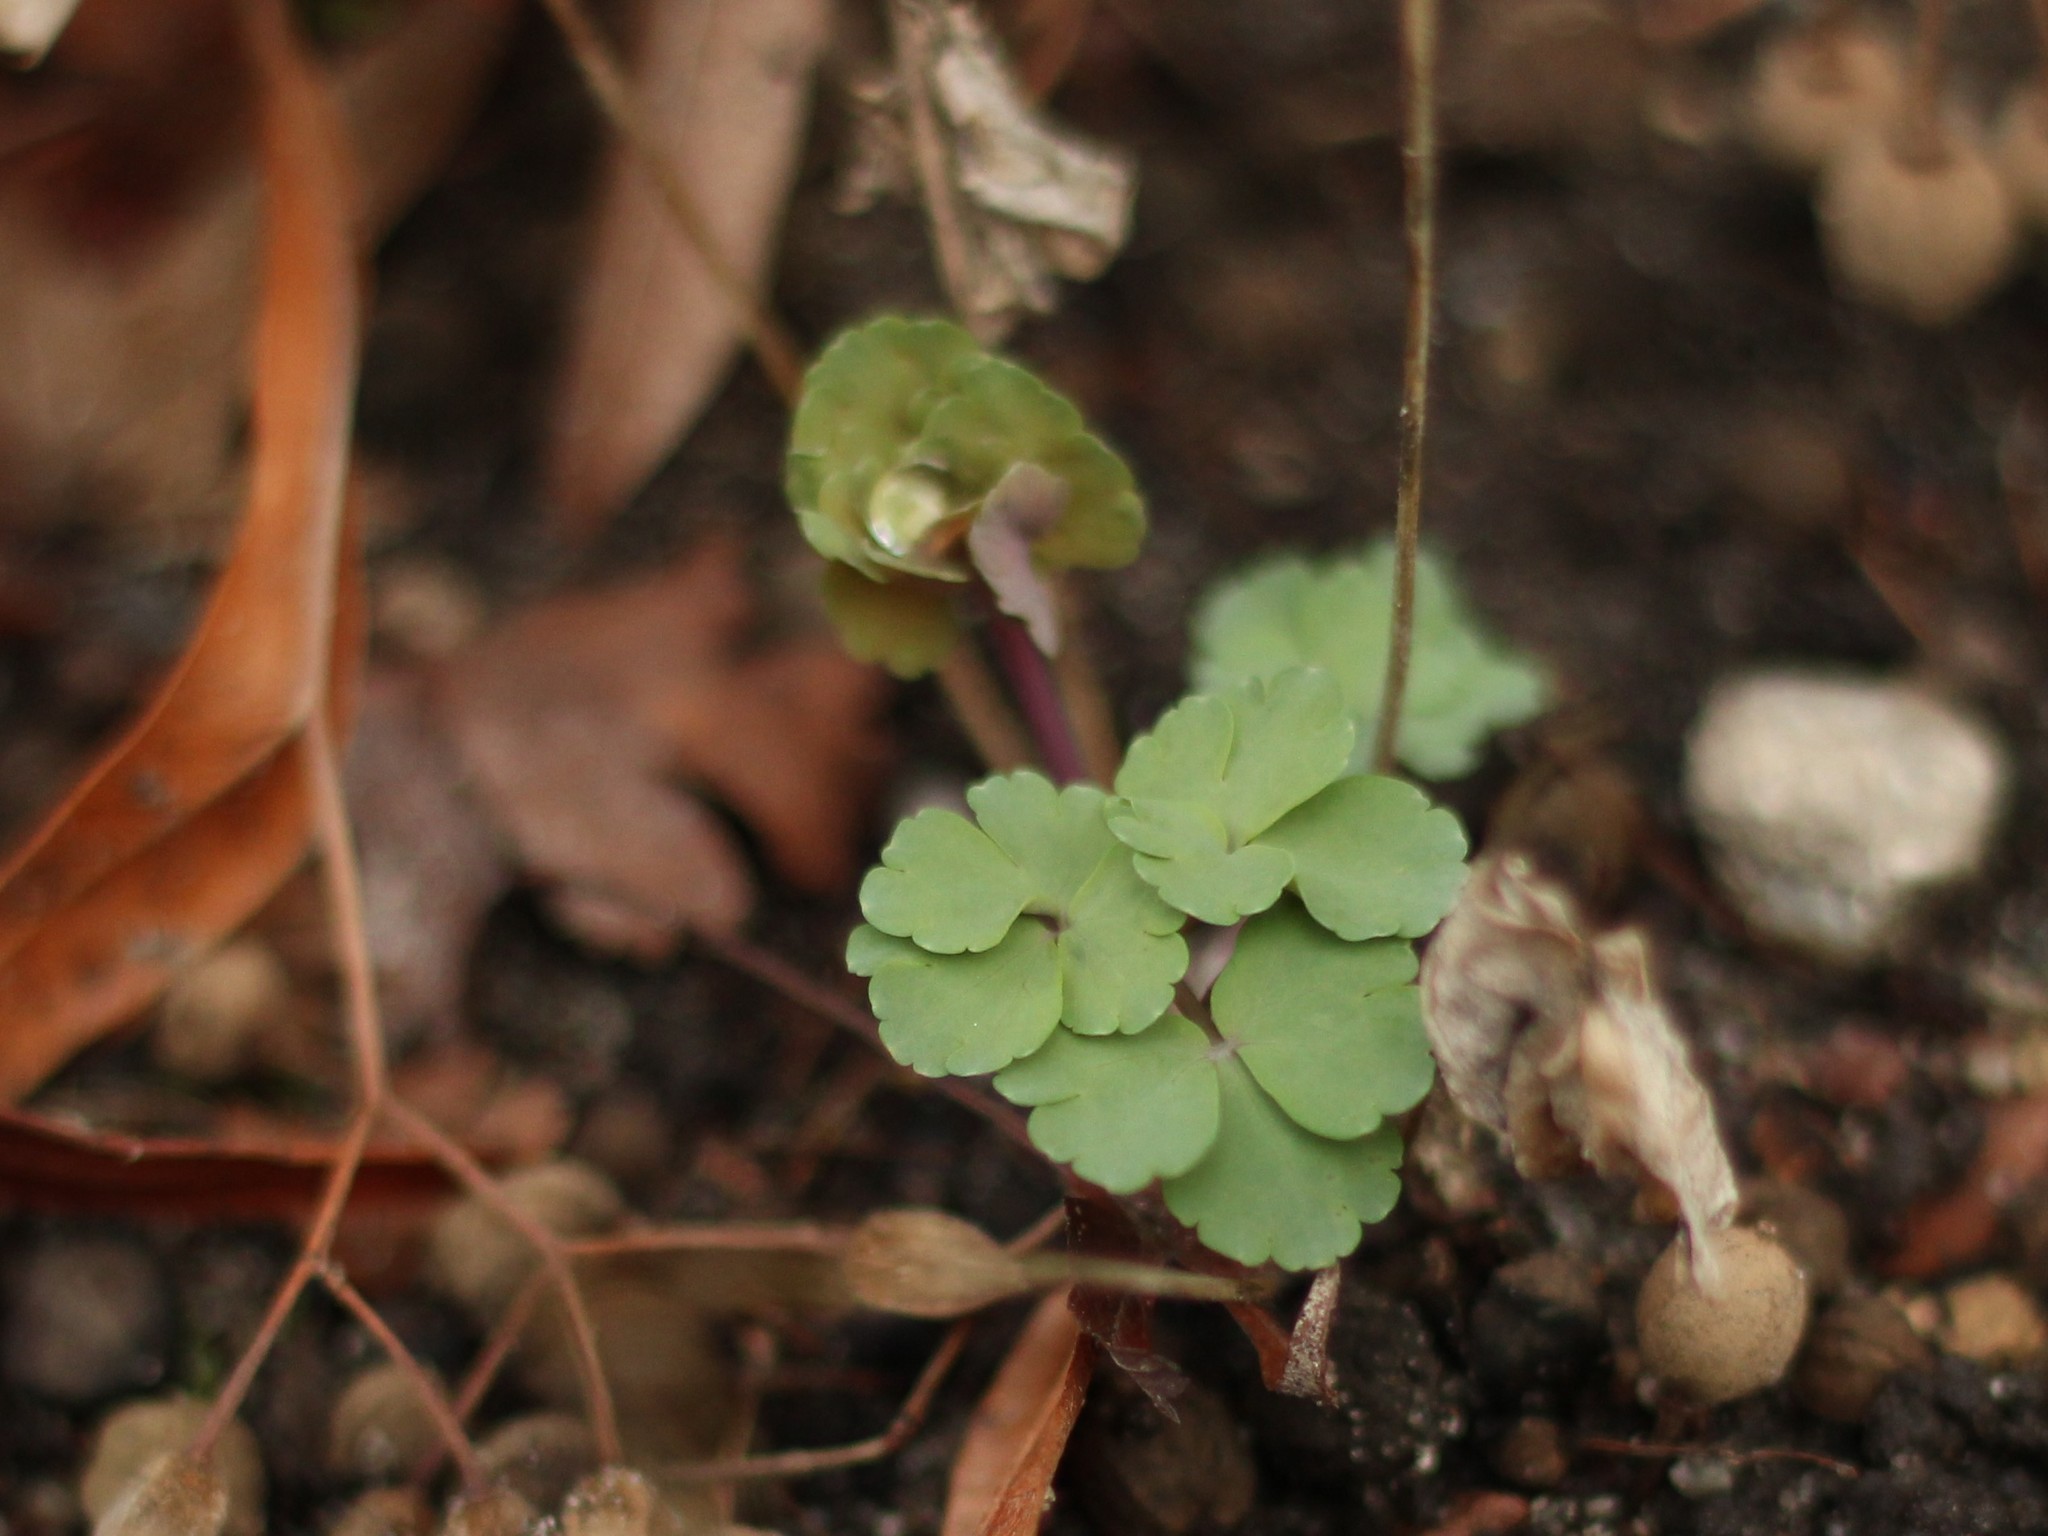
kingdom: Plantae
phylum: Tracheophyta
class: Magnoliopsida
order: Ranunculales
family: Ranunculaceae
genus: Aquilegia
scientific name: Aquilegia vulgaris
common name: Columbine
